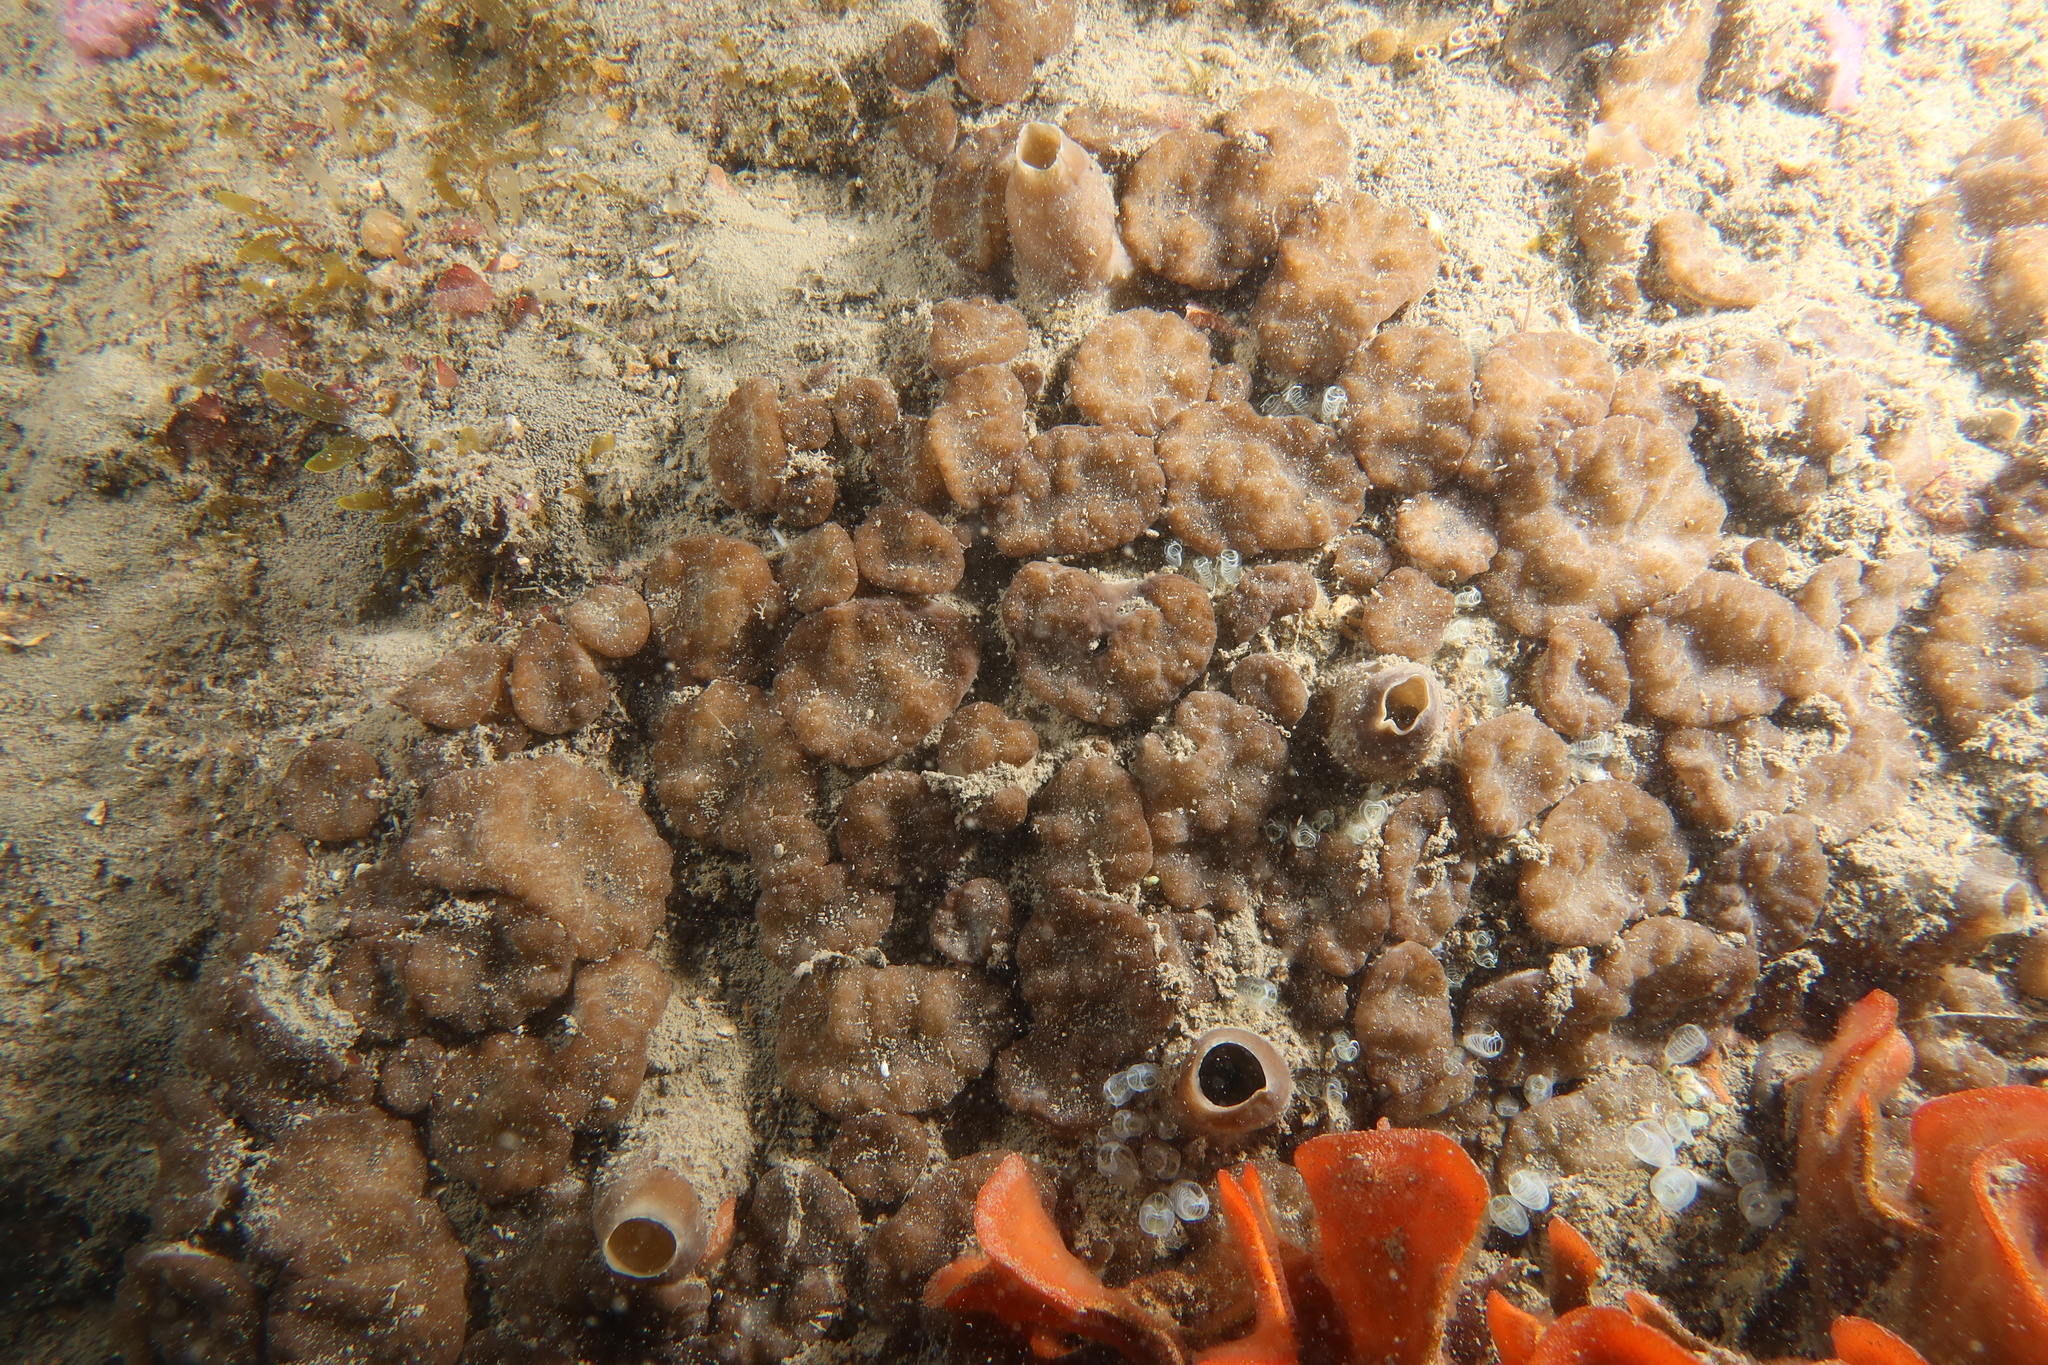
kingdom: Animalia
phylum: Porifera
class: Demospongiae
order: Clionaida
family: Clionaidae
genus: Cliona
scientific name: Cliona viridis
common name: Green boring sponge
